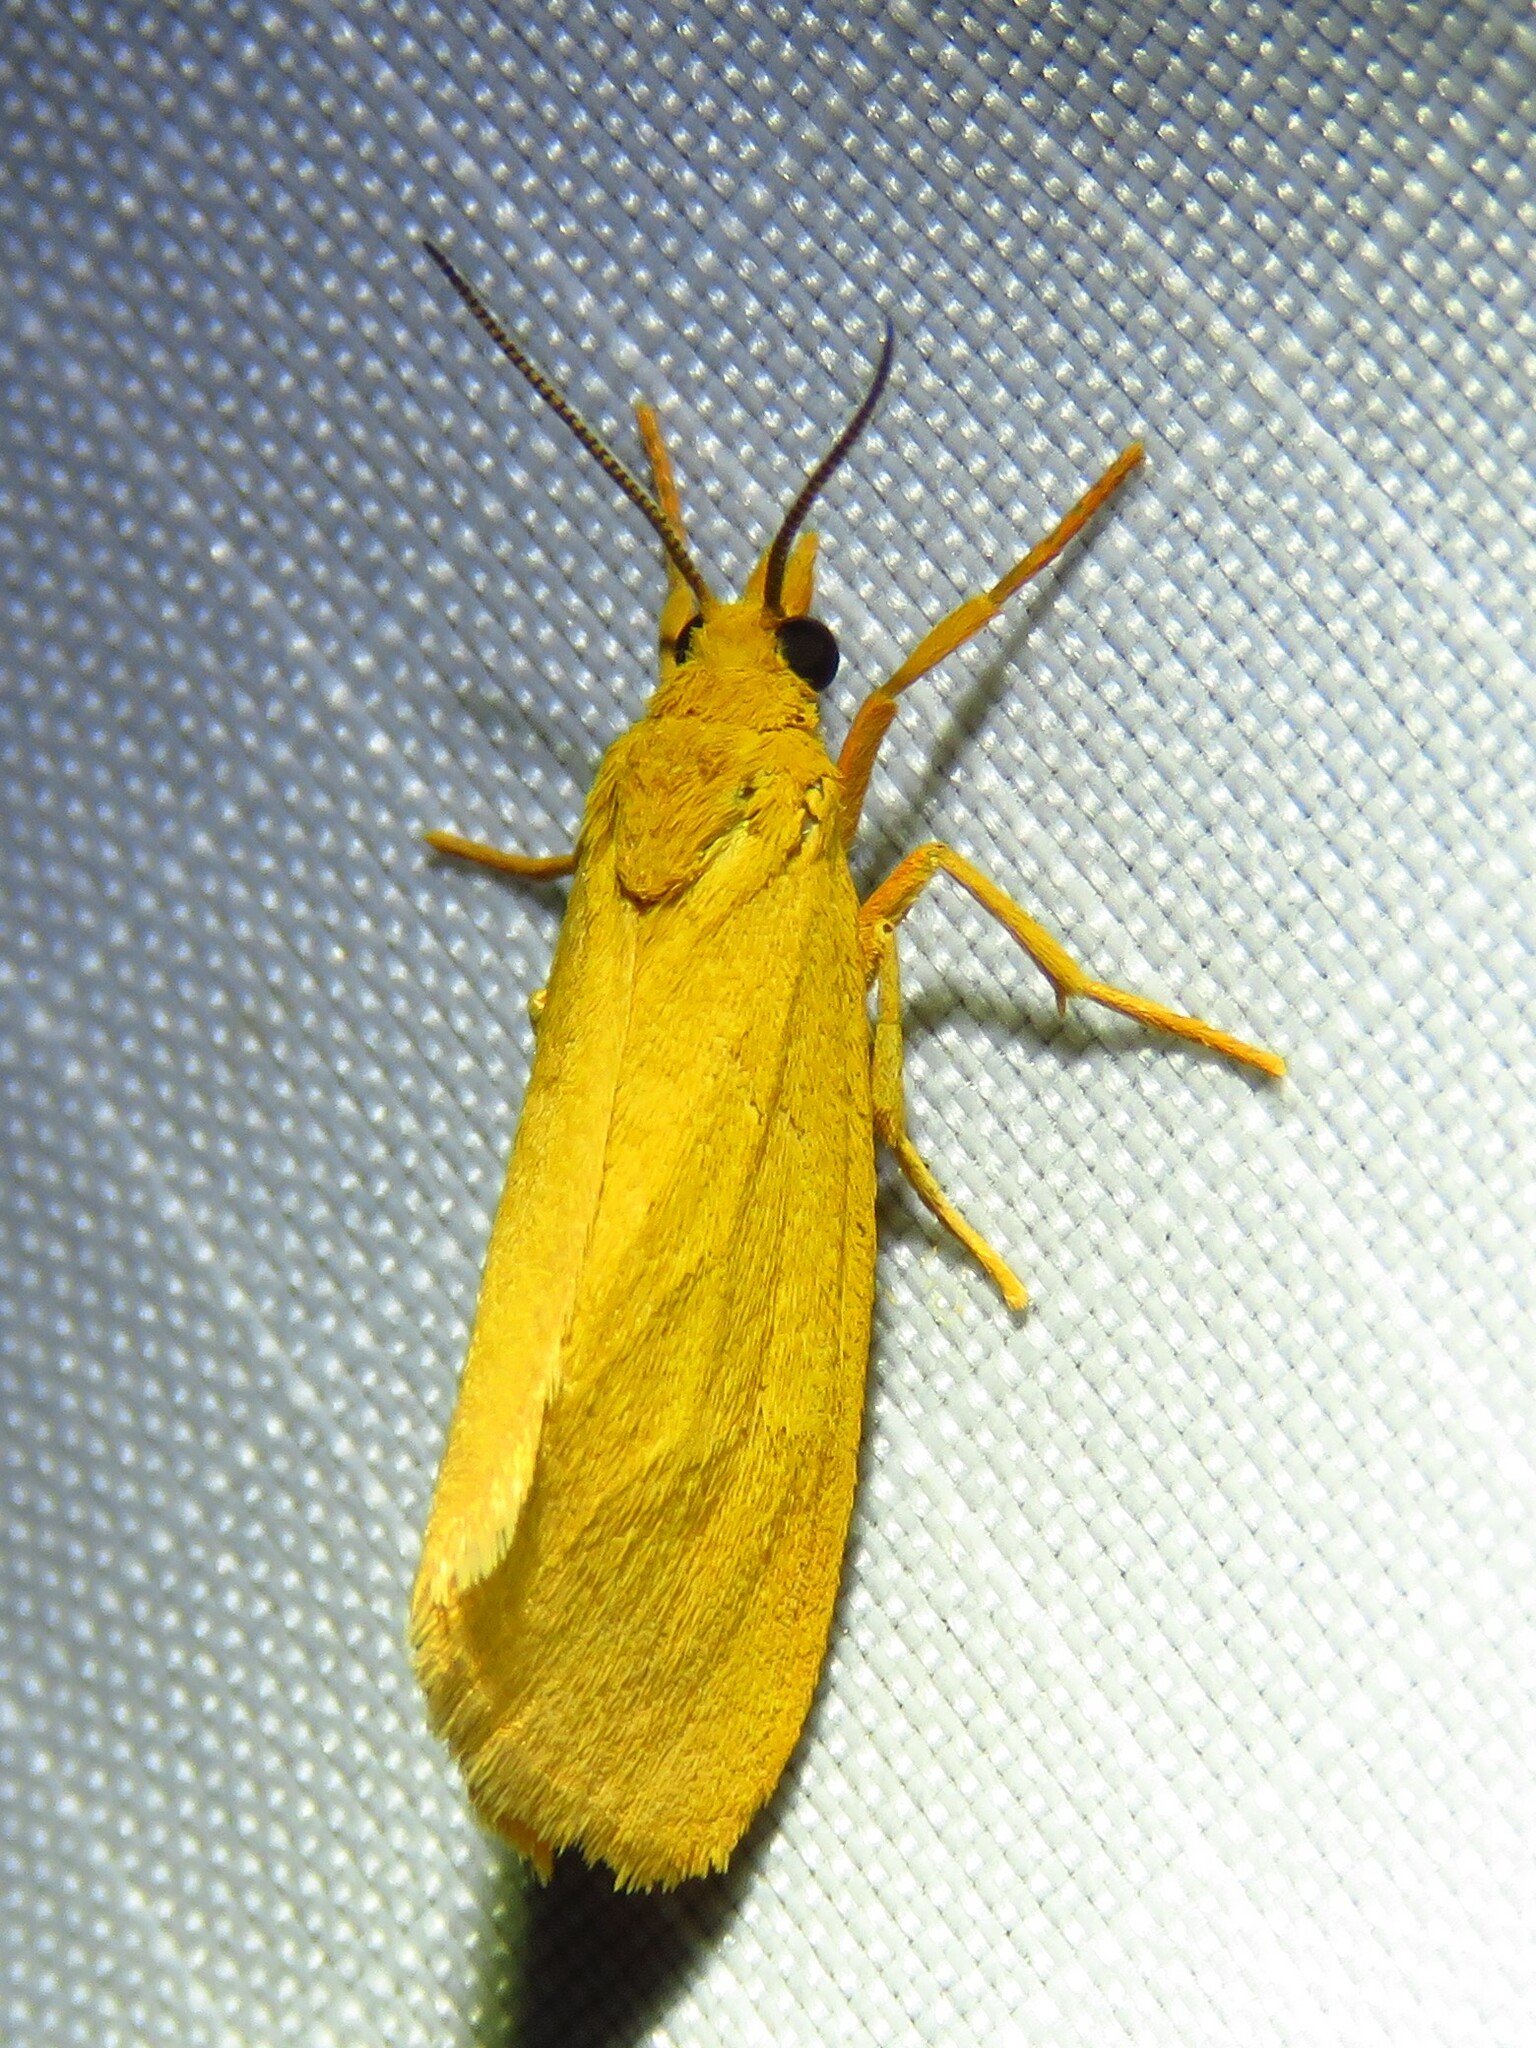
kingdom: Animalia
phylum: Arthropoda
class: Insecta
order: Lepidoptera
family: Erebidae
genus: Virbia
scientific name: Virbia aurantiaca
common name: Orange virbia moth
